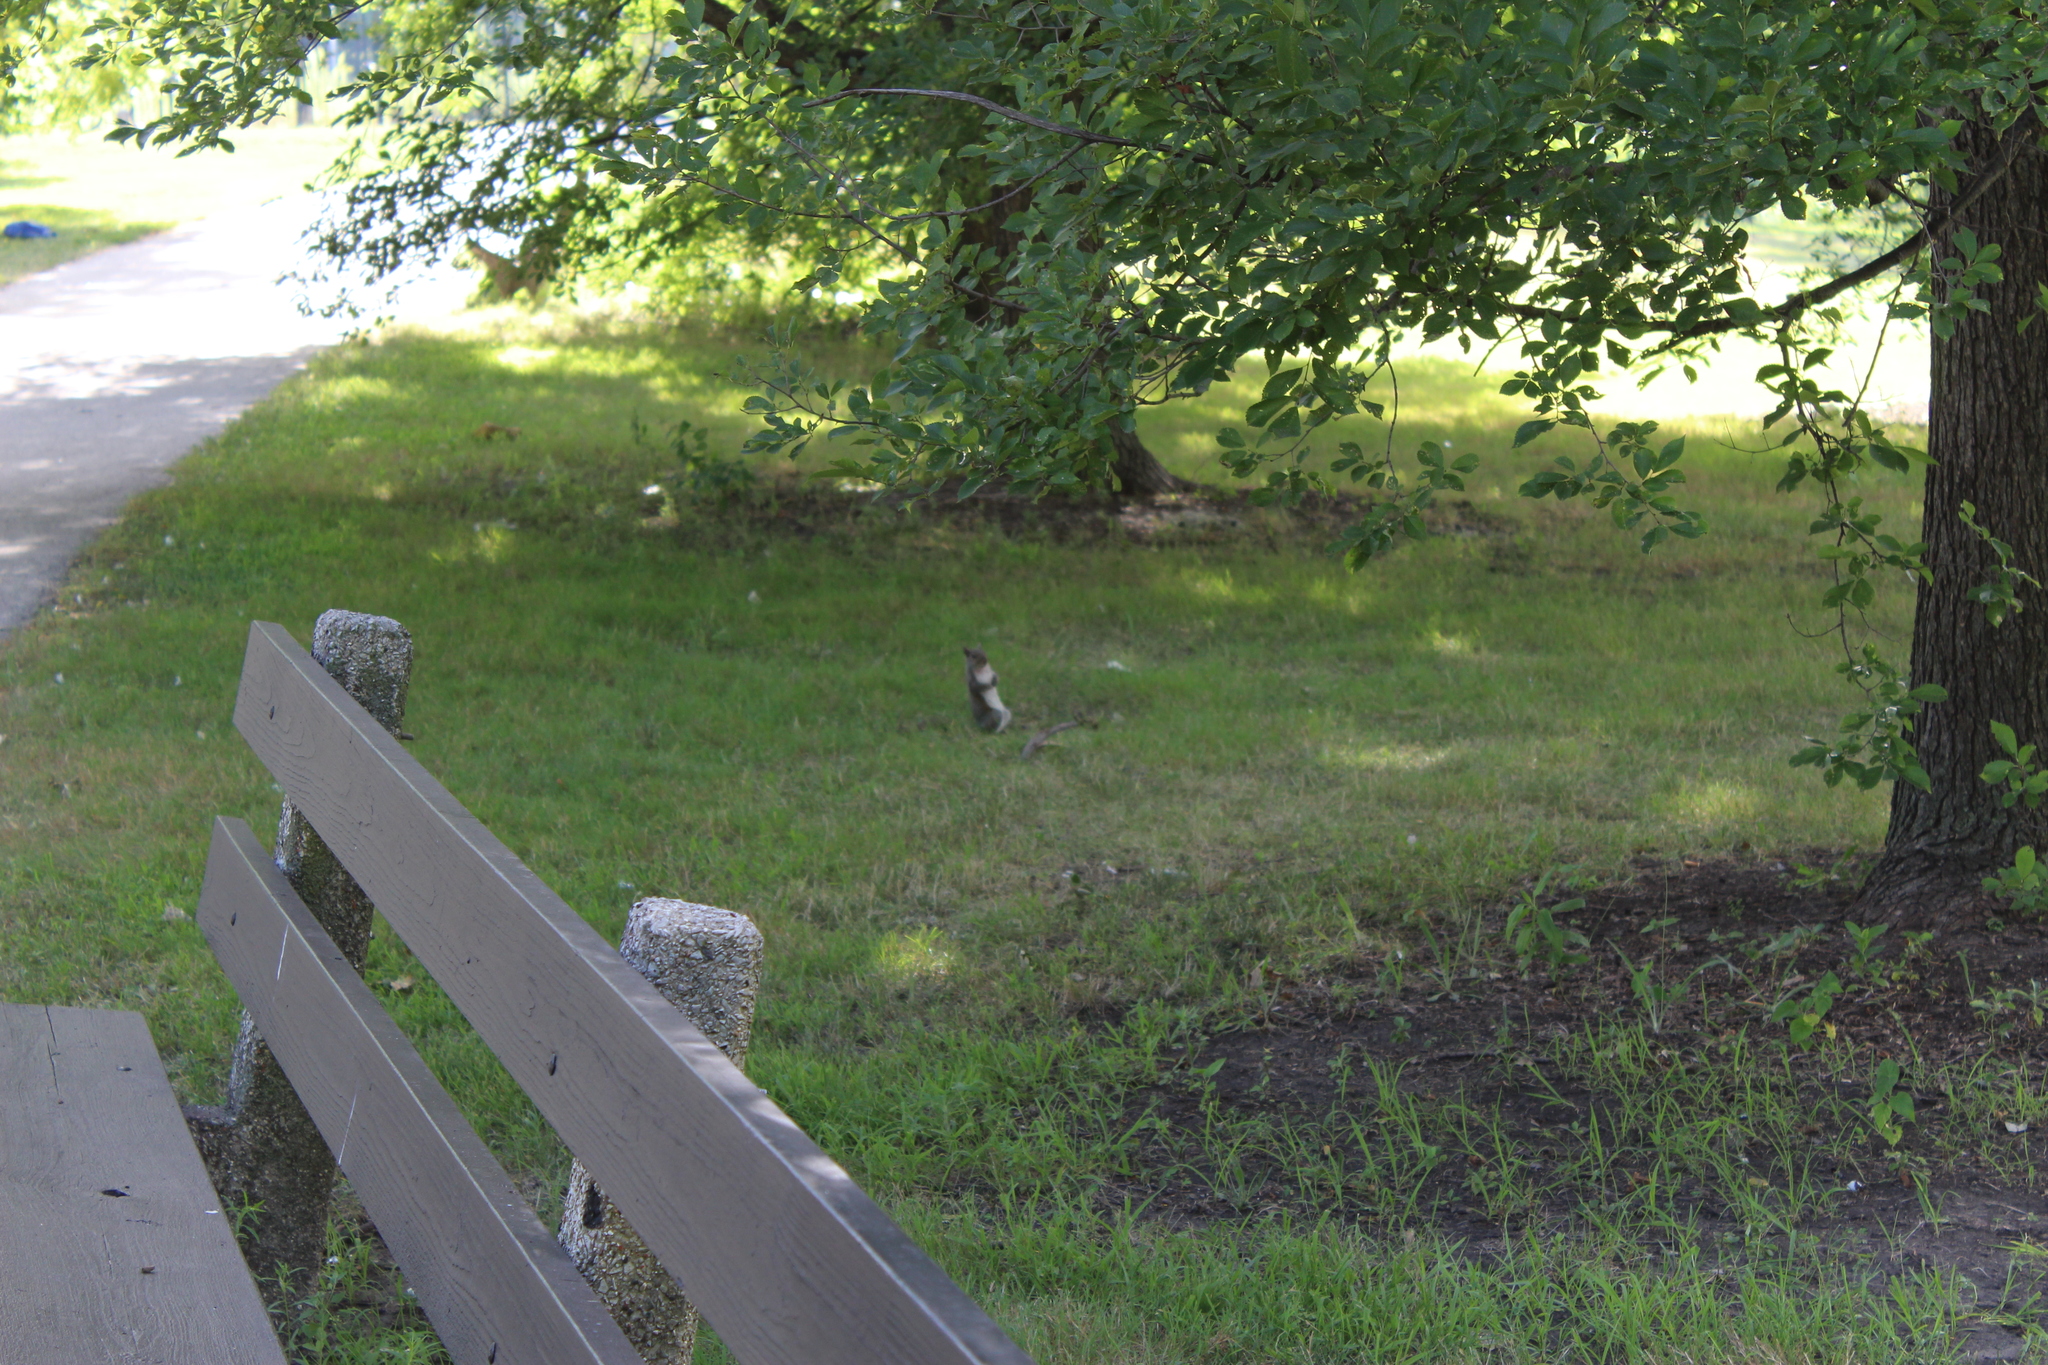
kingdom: Animalia
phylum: Chordata
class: Mammalia
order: Rodentia
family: Sciuridae
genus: Sciurus
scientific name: Sciurus carolinensis
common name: Eastern gray squirrel
